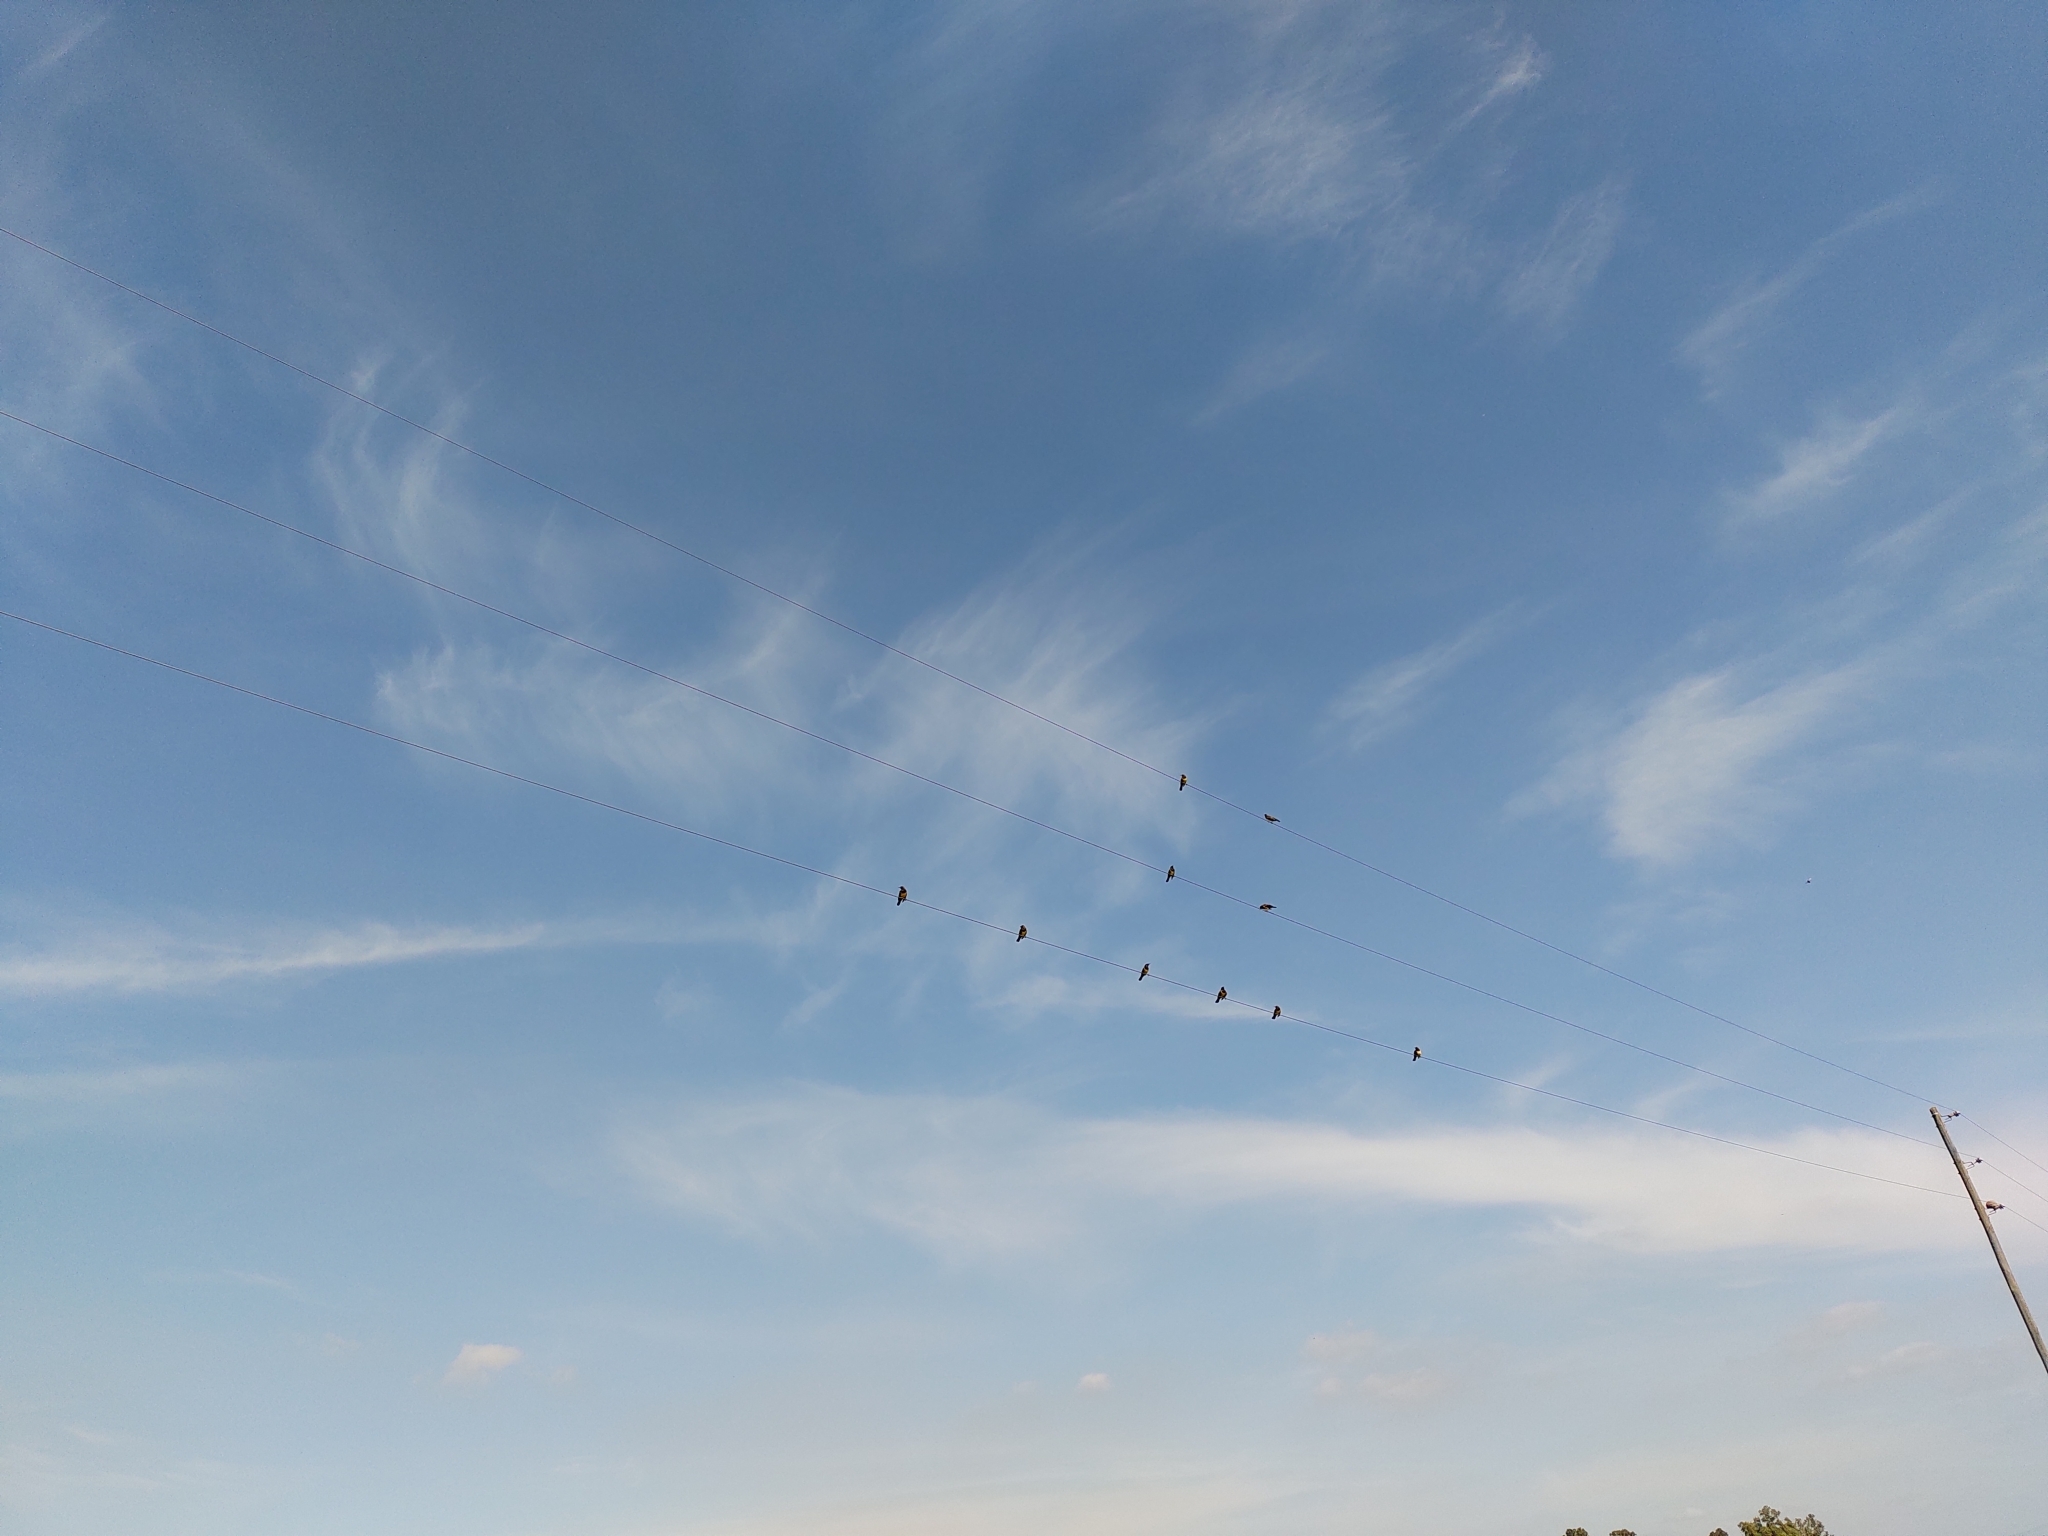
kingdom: Animalia
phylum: Chordata
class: Aves
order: Passeriformes
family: Icteridae
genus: Pseudoleistes
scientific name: Pseudoleistes virescens
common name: Brown-and-yellow marshbird
